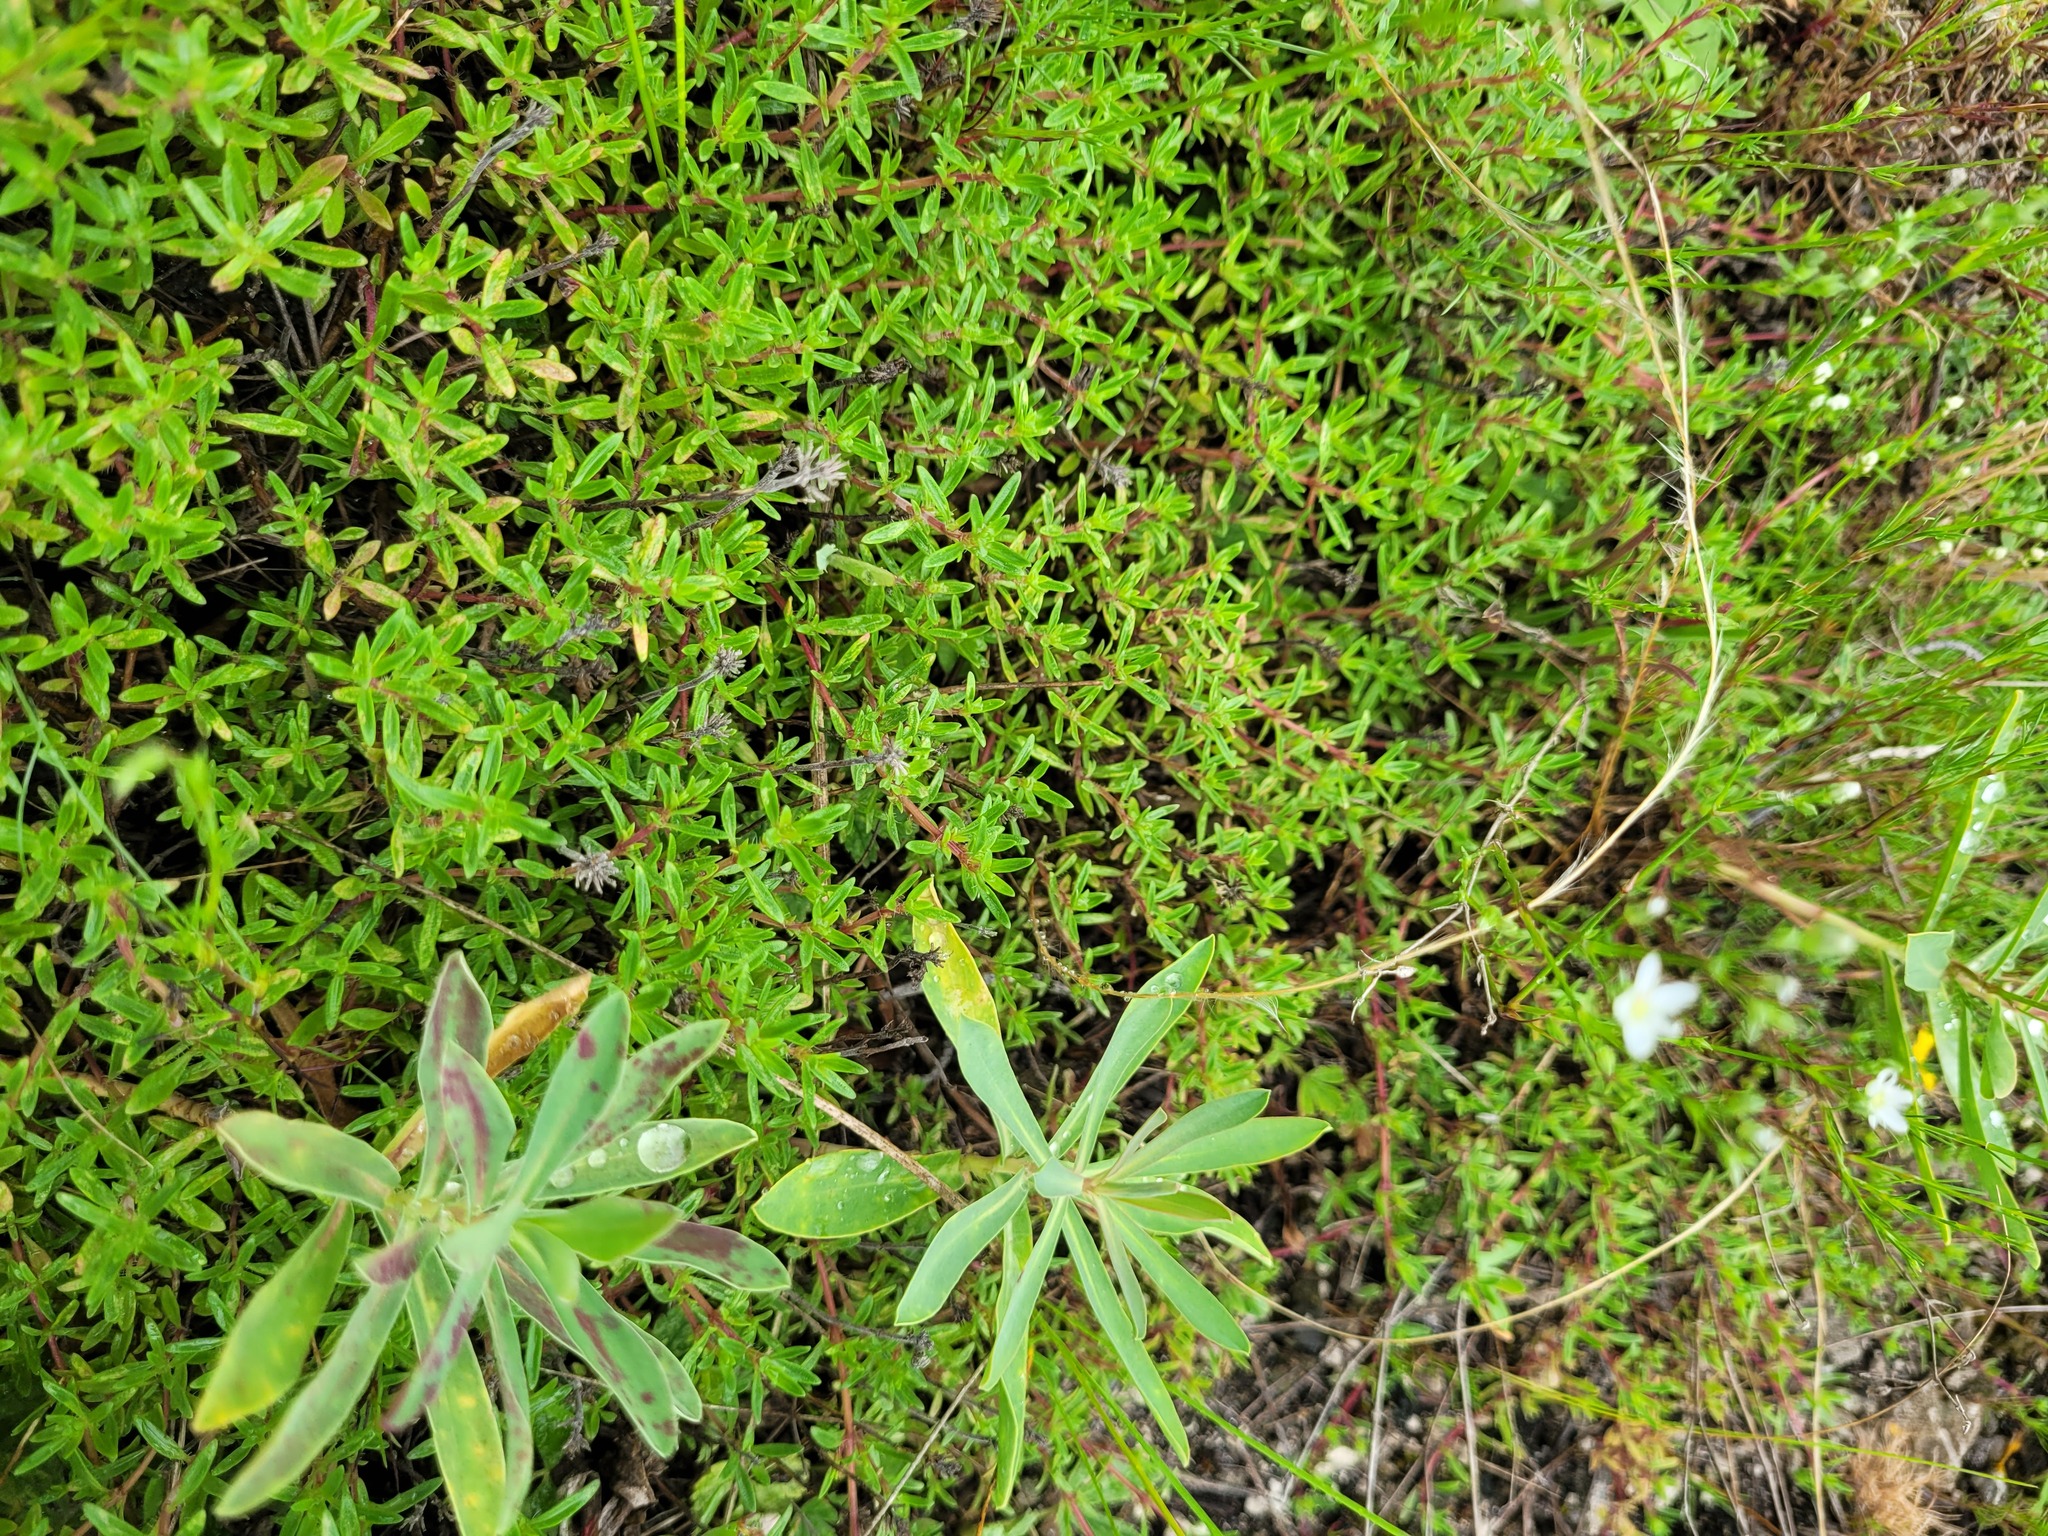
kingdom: Plantae
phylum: Tracheophyta
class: Magnoliopsida
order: Lamiales
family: Lamiaceae
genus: Thymus
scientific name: Thymus calcareus
